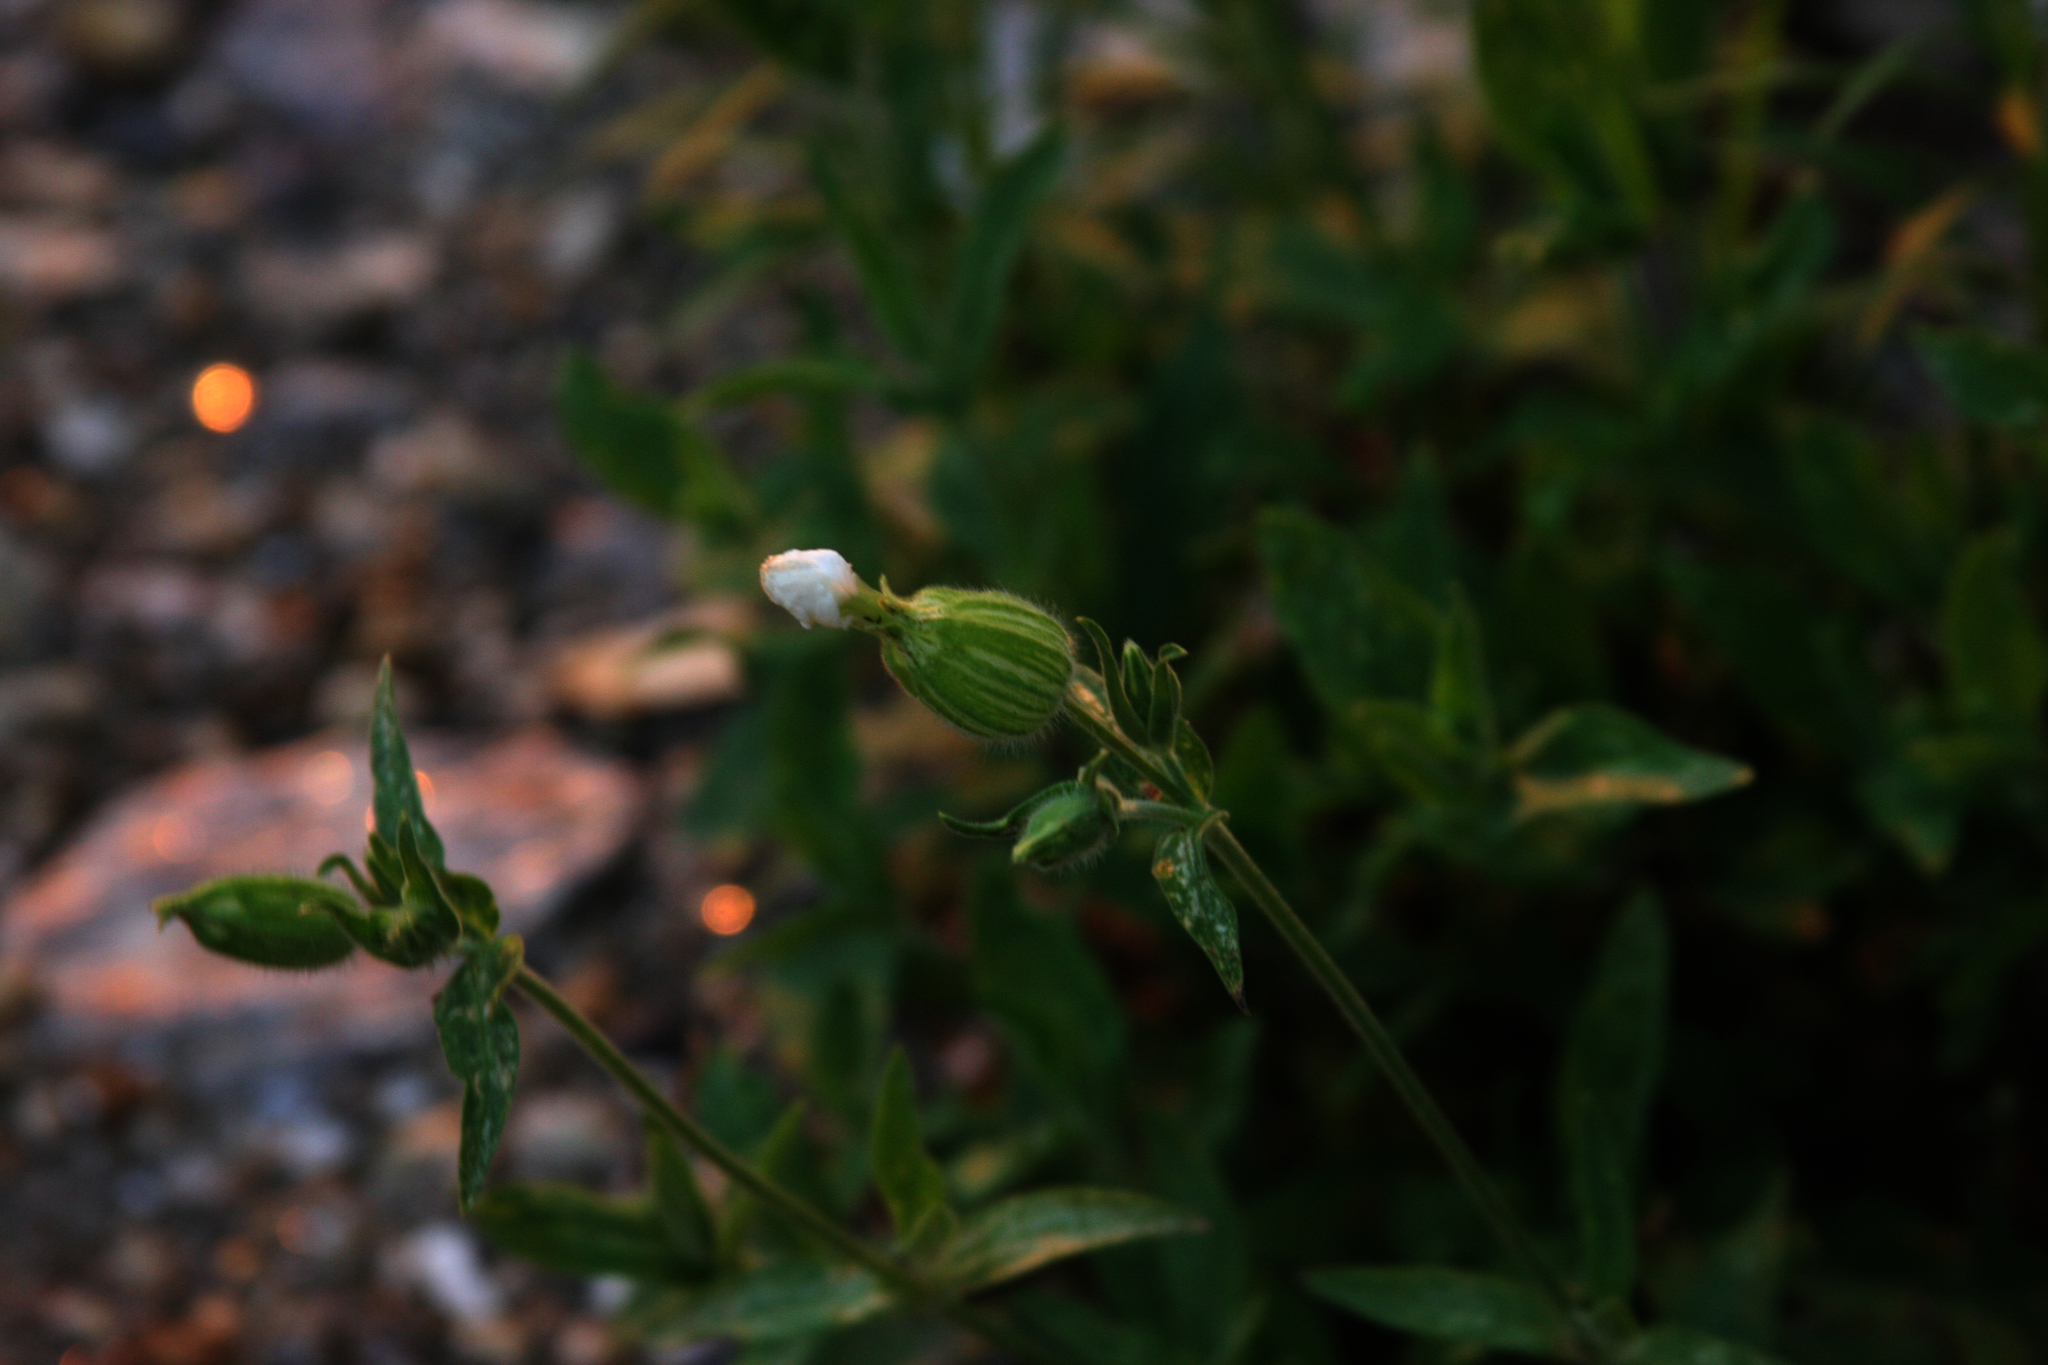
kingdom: Plantae
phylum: Tracheophyta
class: Magnoliopsida
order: Caryophyllales
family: Caryophyllaceae
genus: Silene
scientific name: Silene latifolia
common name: White campion
